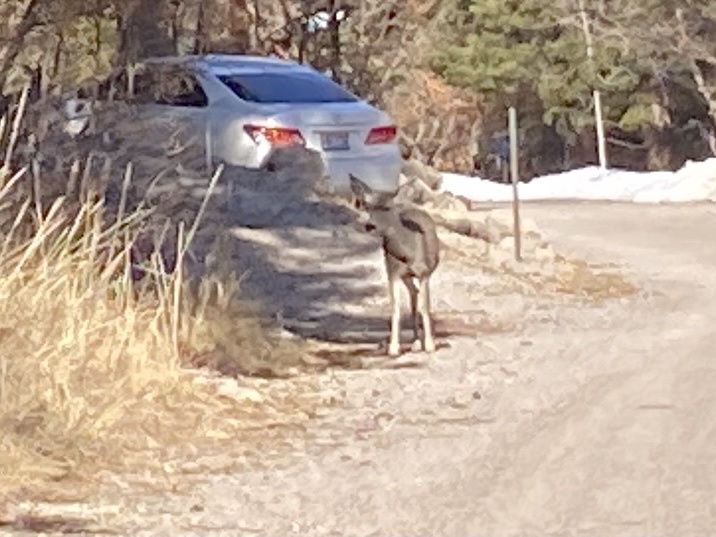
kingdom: Animalia
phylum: Chordata
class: Mammalia
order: Artiodactyla
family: Cervidae
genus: Odocoileus
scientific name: Odocoileus hemionus
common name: Mule deer
